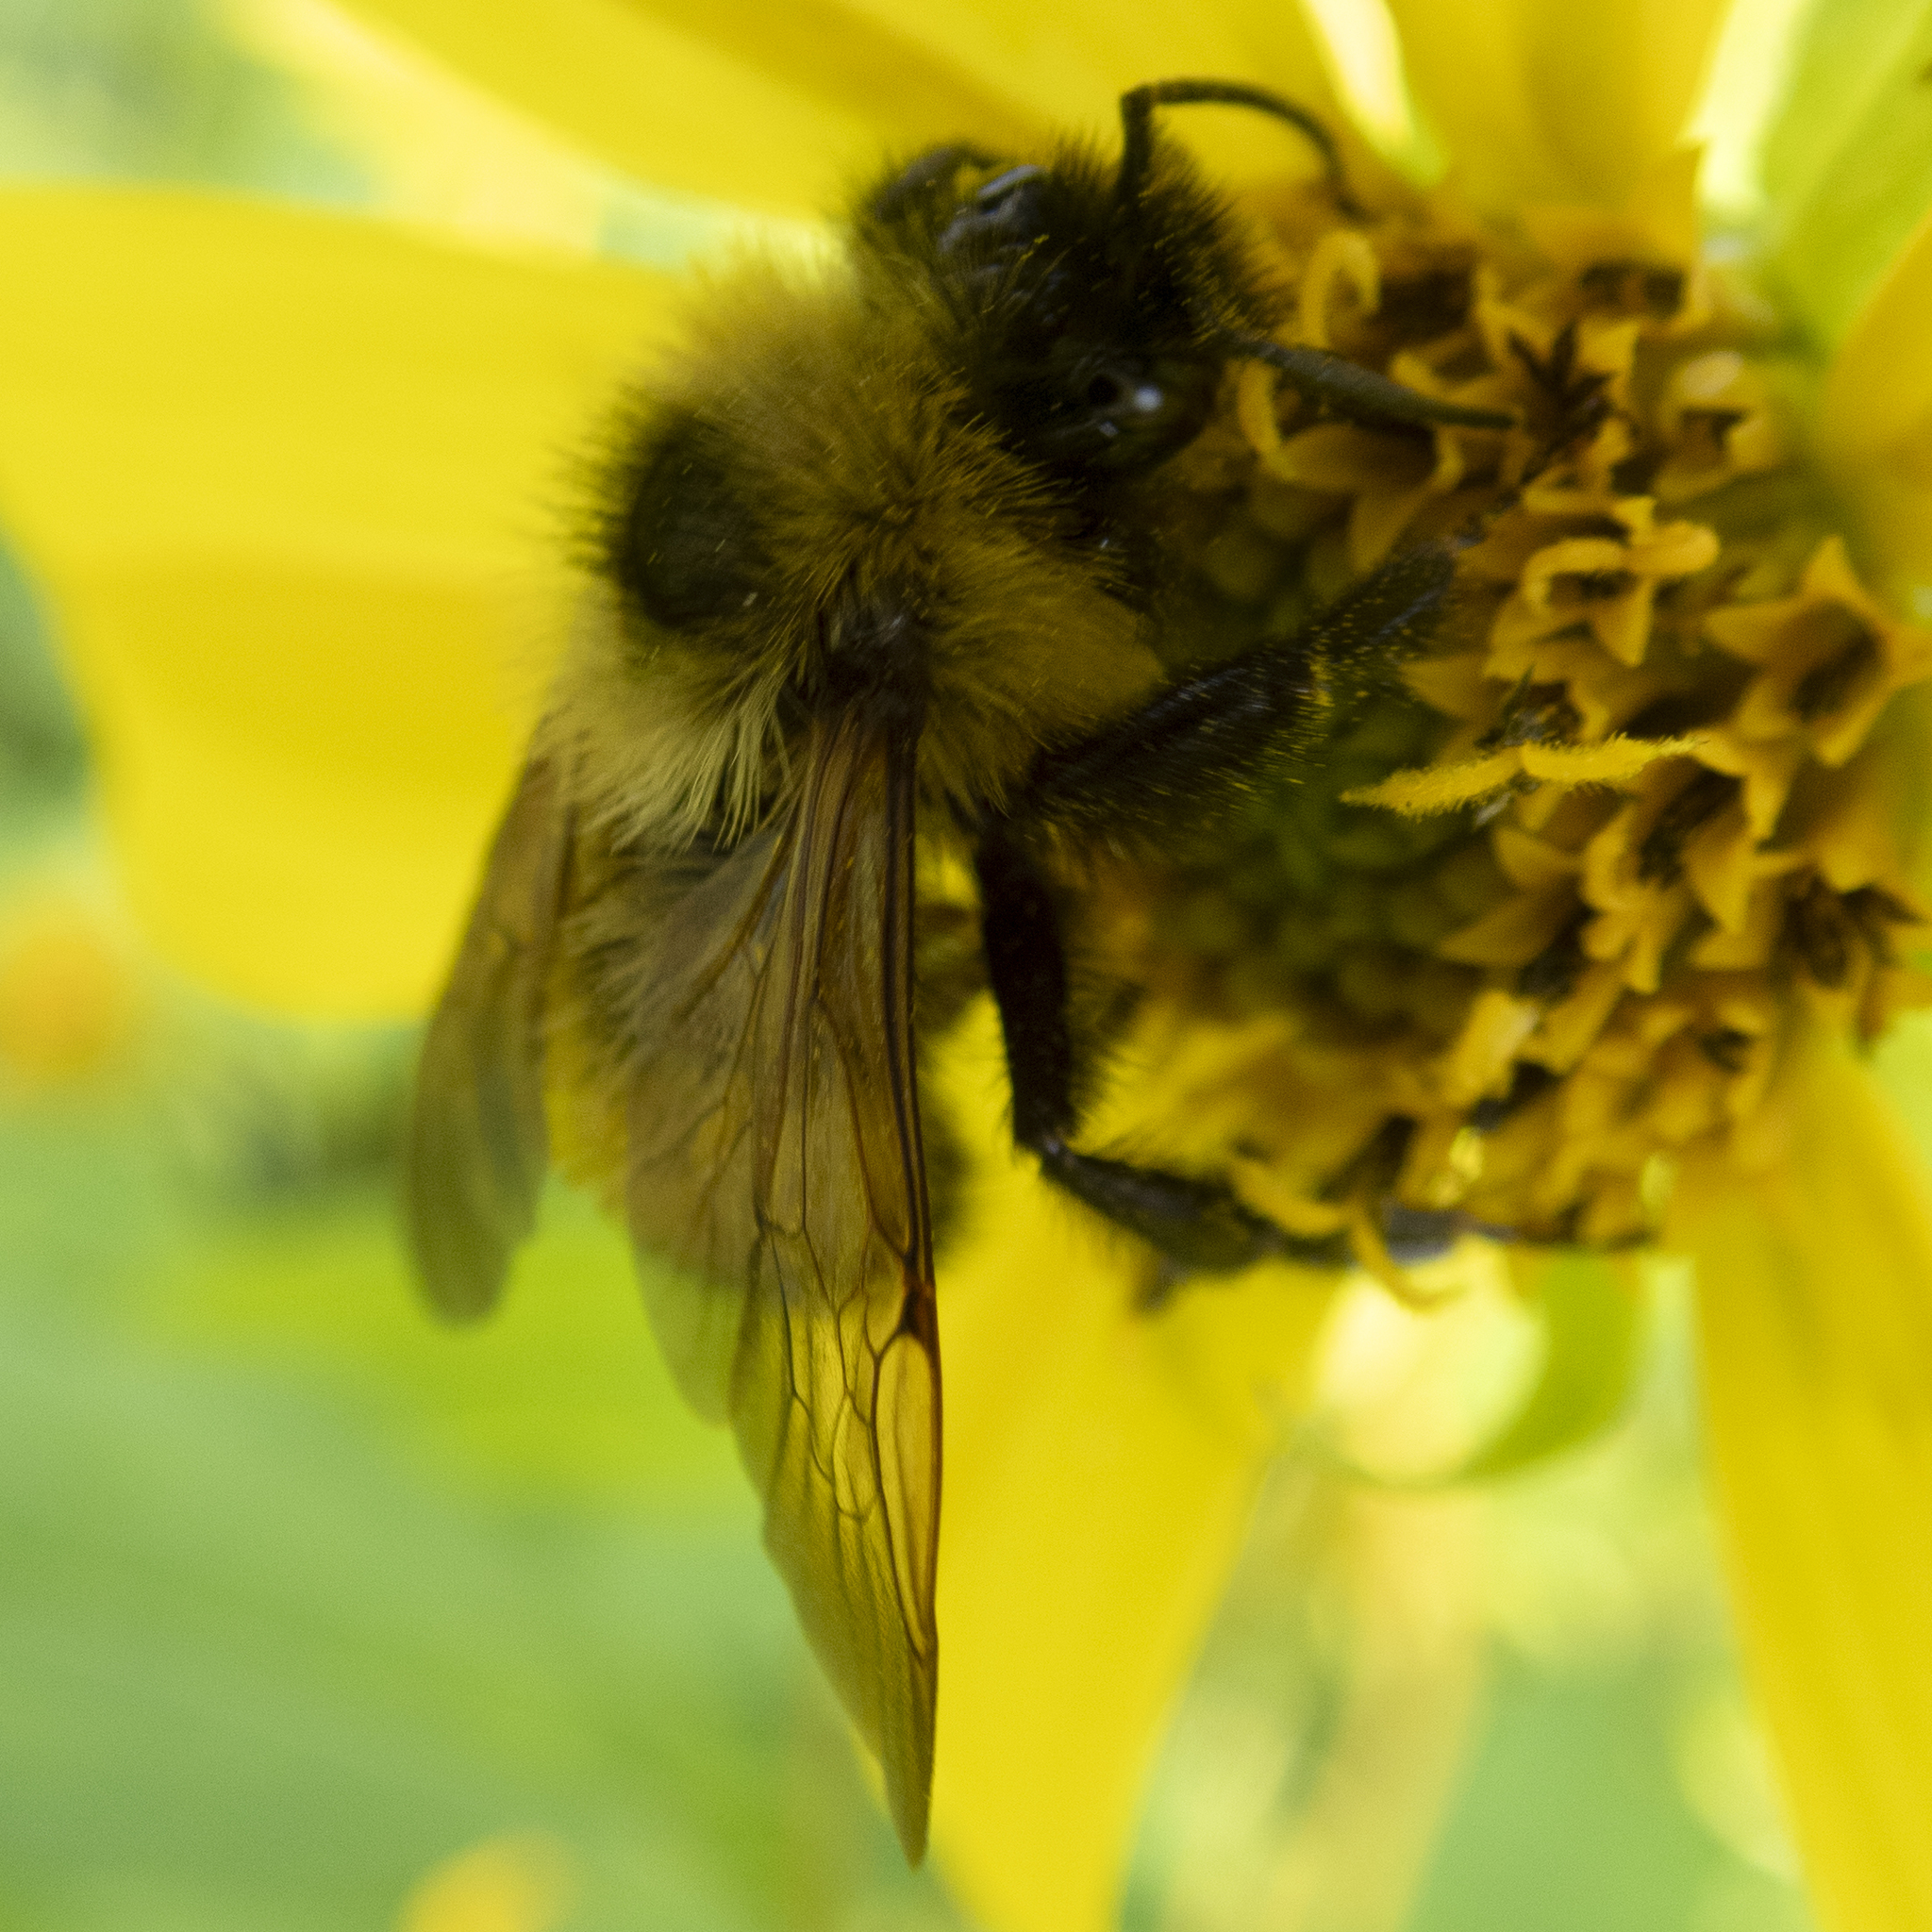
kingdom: Animalia
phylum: Arthropoda
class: Insecta
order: Hymenoptera
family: Apidae
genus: Bombus
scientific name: Bombus citrinus
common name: Lemon cuckoo bumble bee
